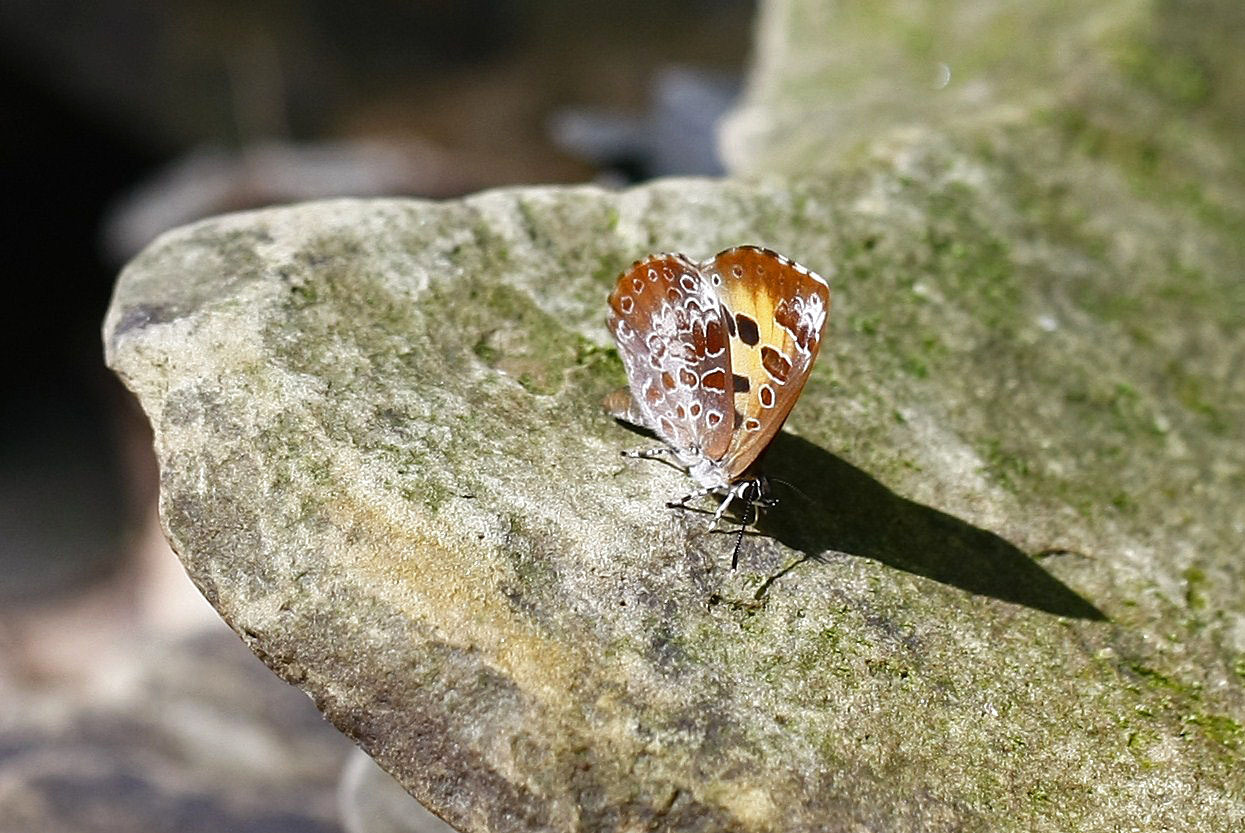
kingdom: Animalia
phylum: Arthropoda
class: Insecta
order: Lepidoptera
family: Lycaenidae
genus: Feniseca
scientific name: Feniseca tarquinius
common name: Harvester
